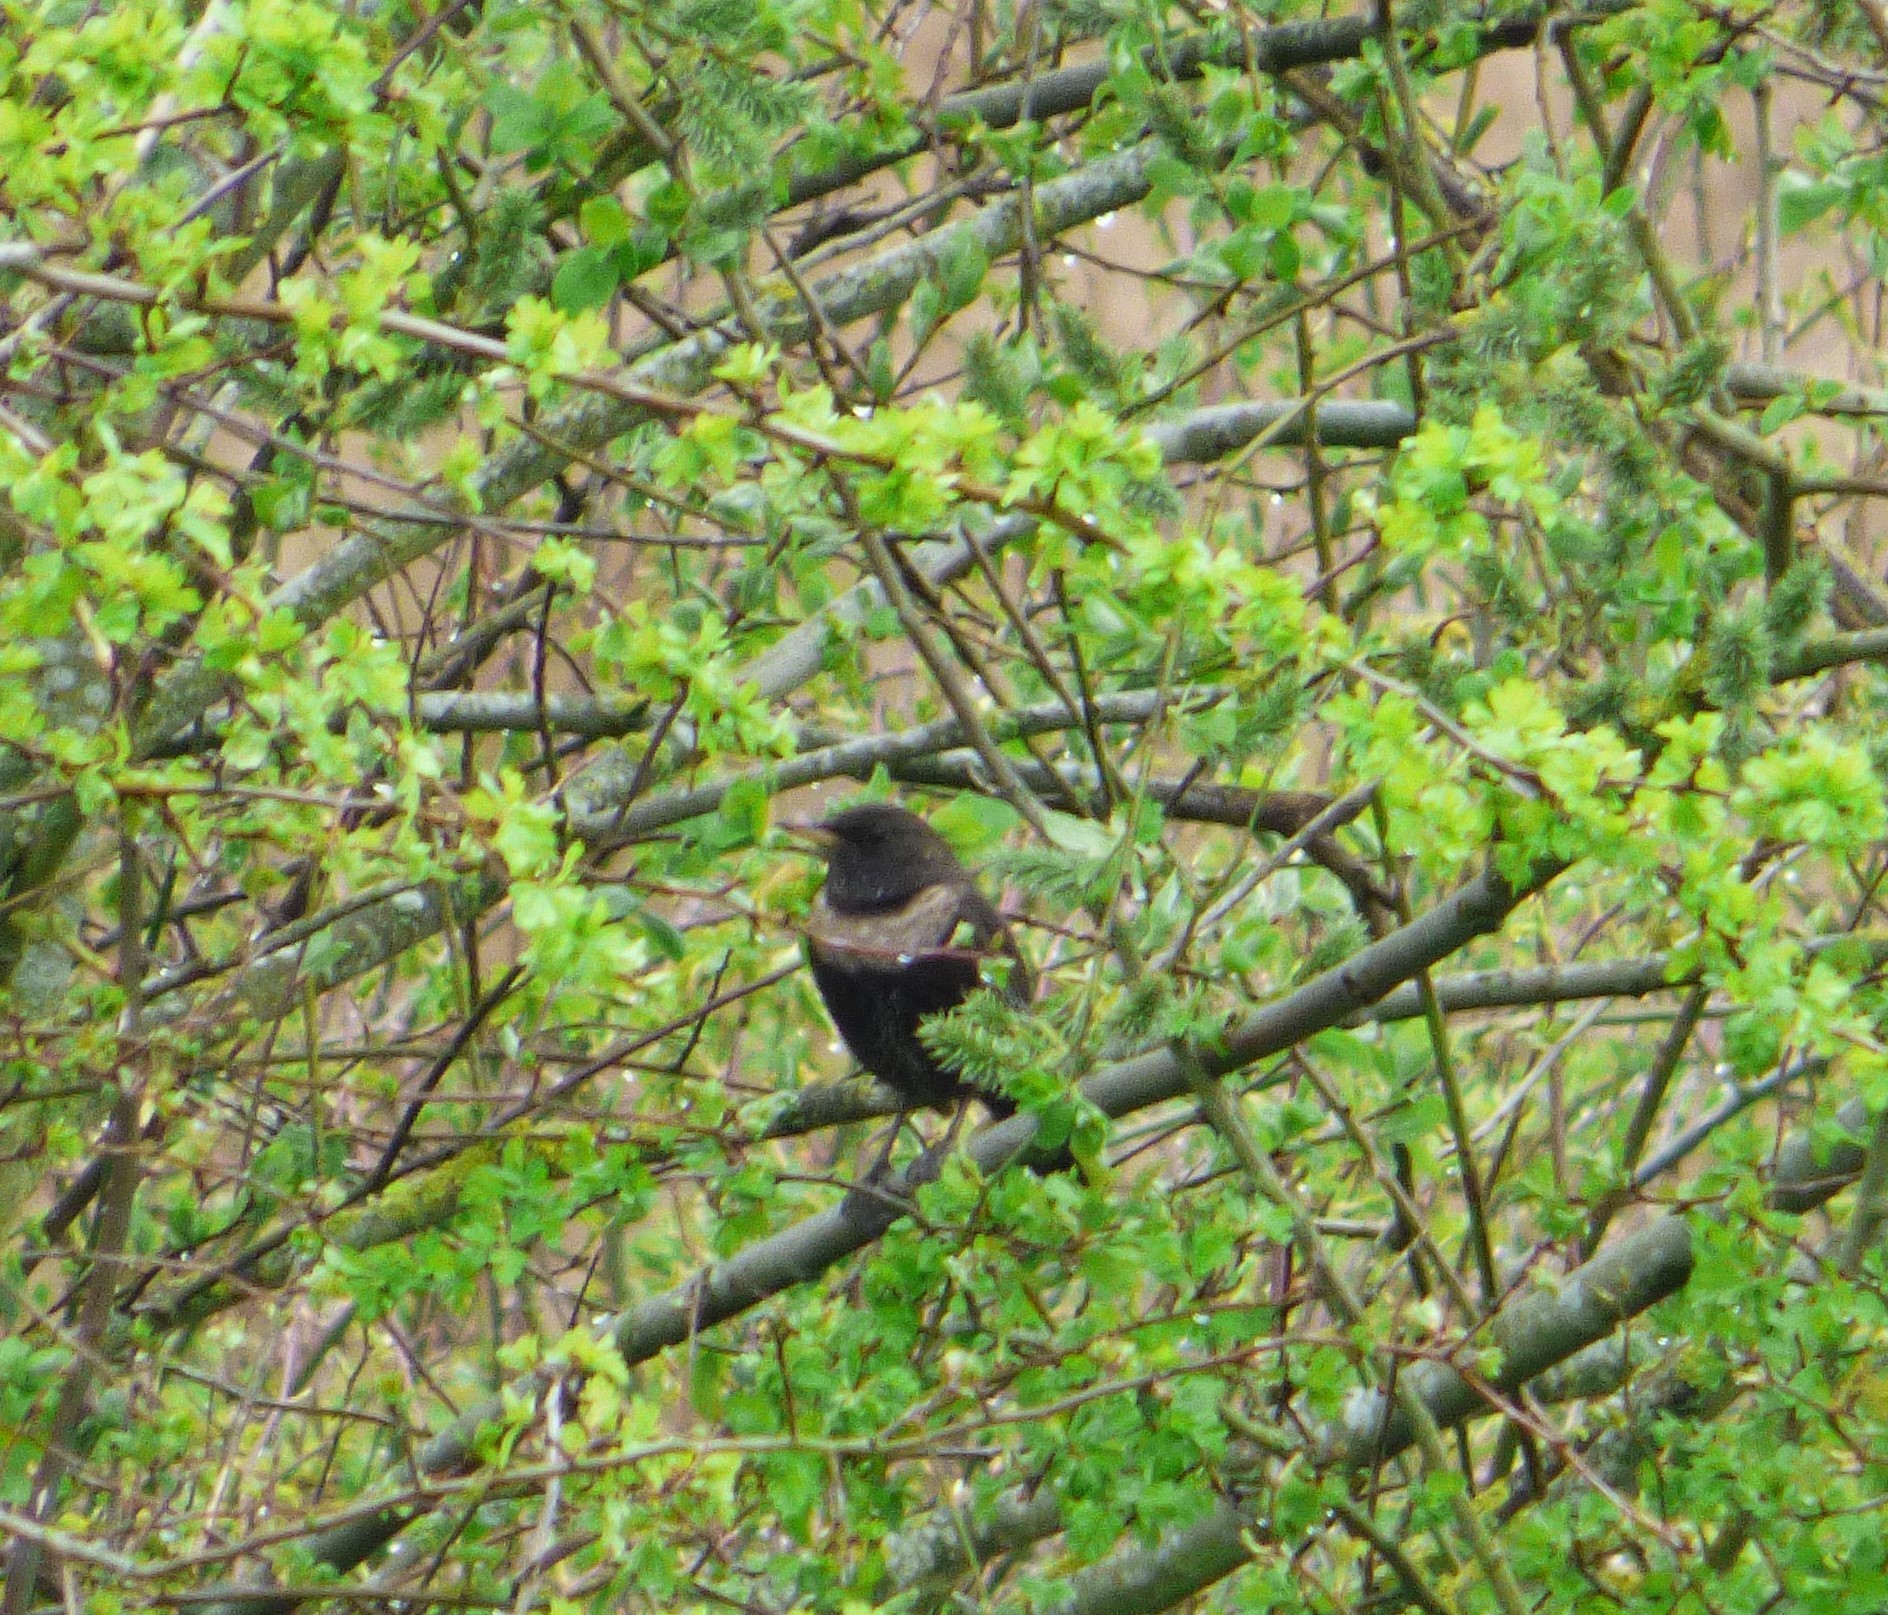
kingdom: Animalia
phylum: Chordata
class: Aves
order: Passeriformes
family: Turdidae
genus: Turdus
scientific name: Turdus torquatus
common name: Ring ouzel
